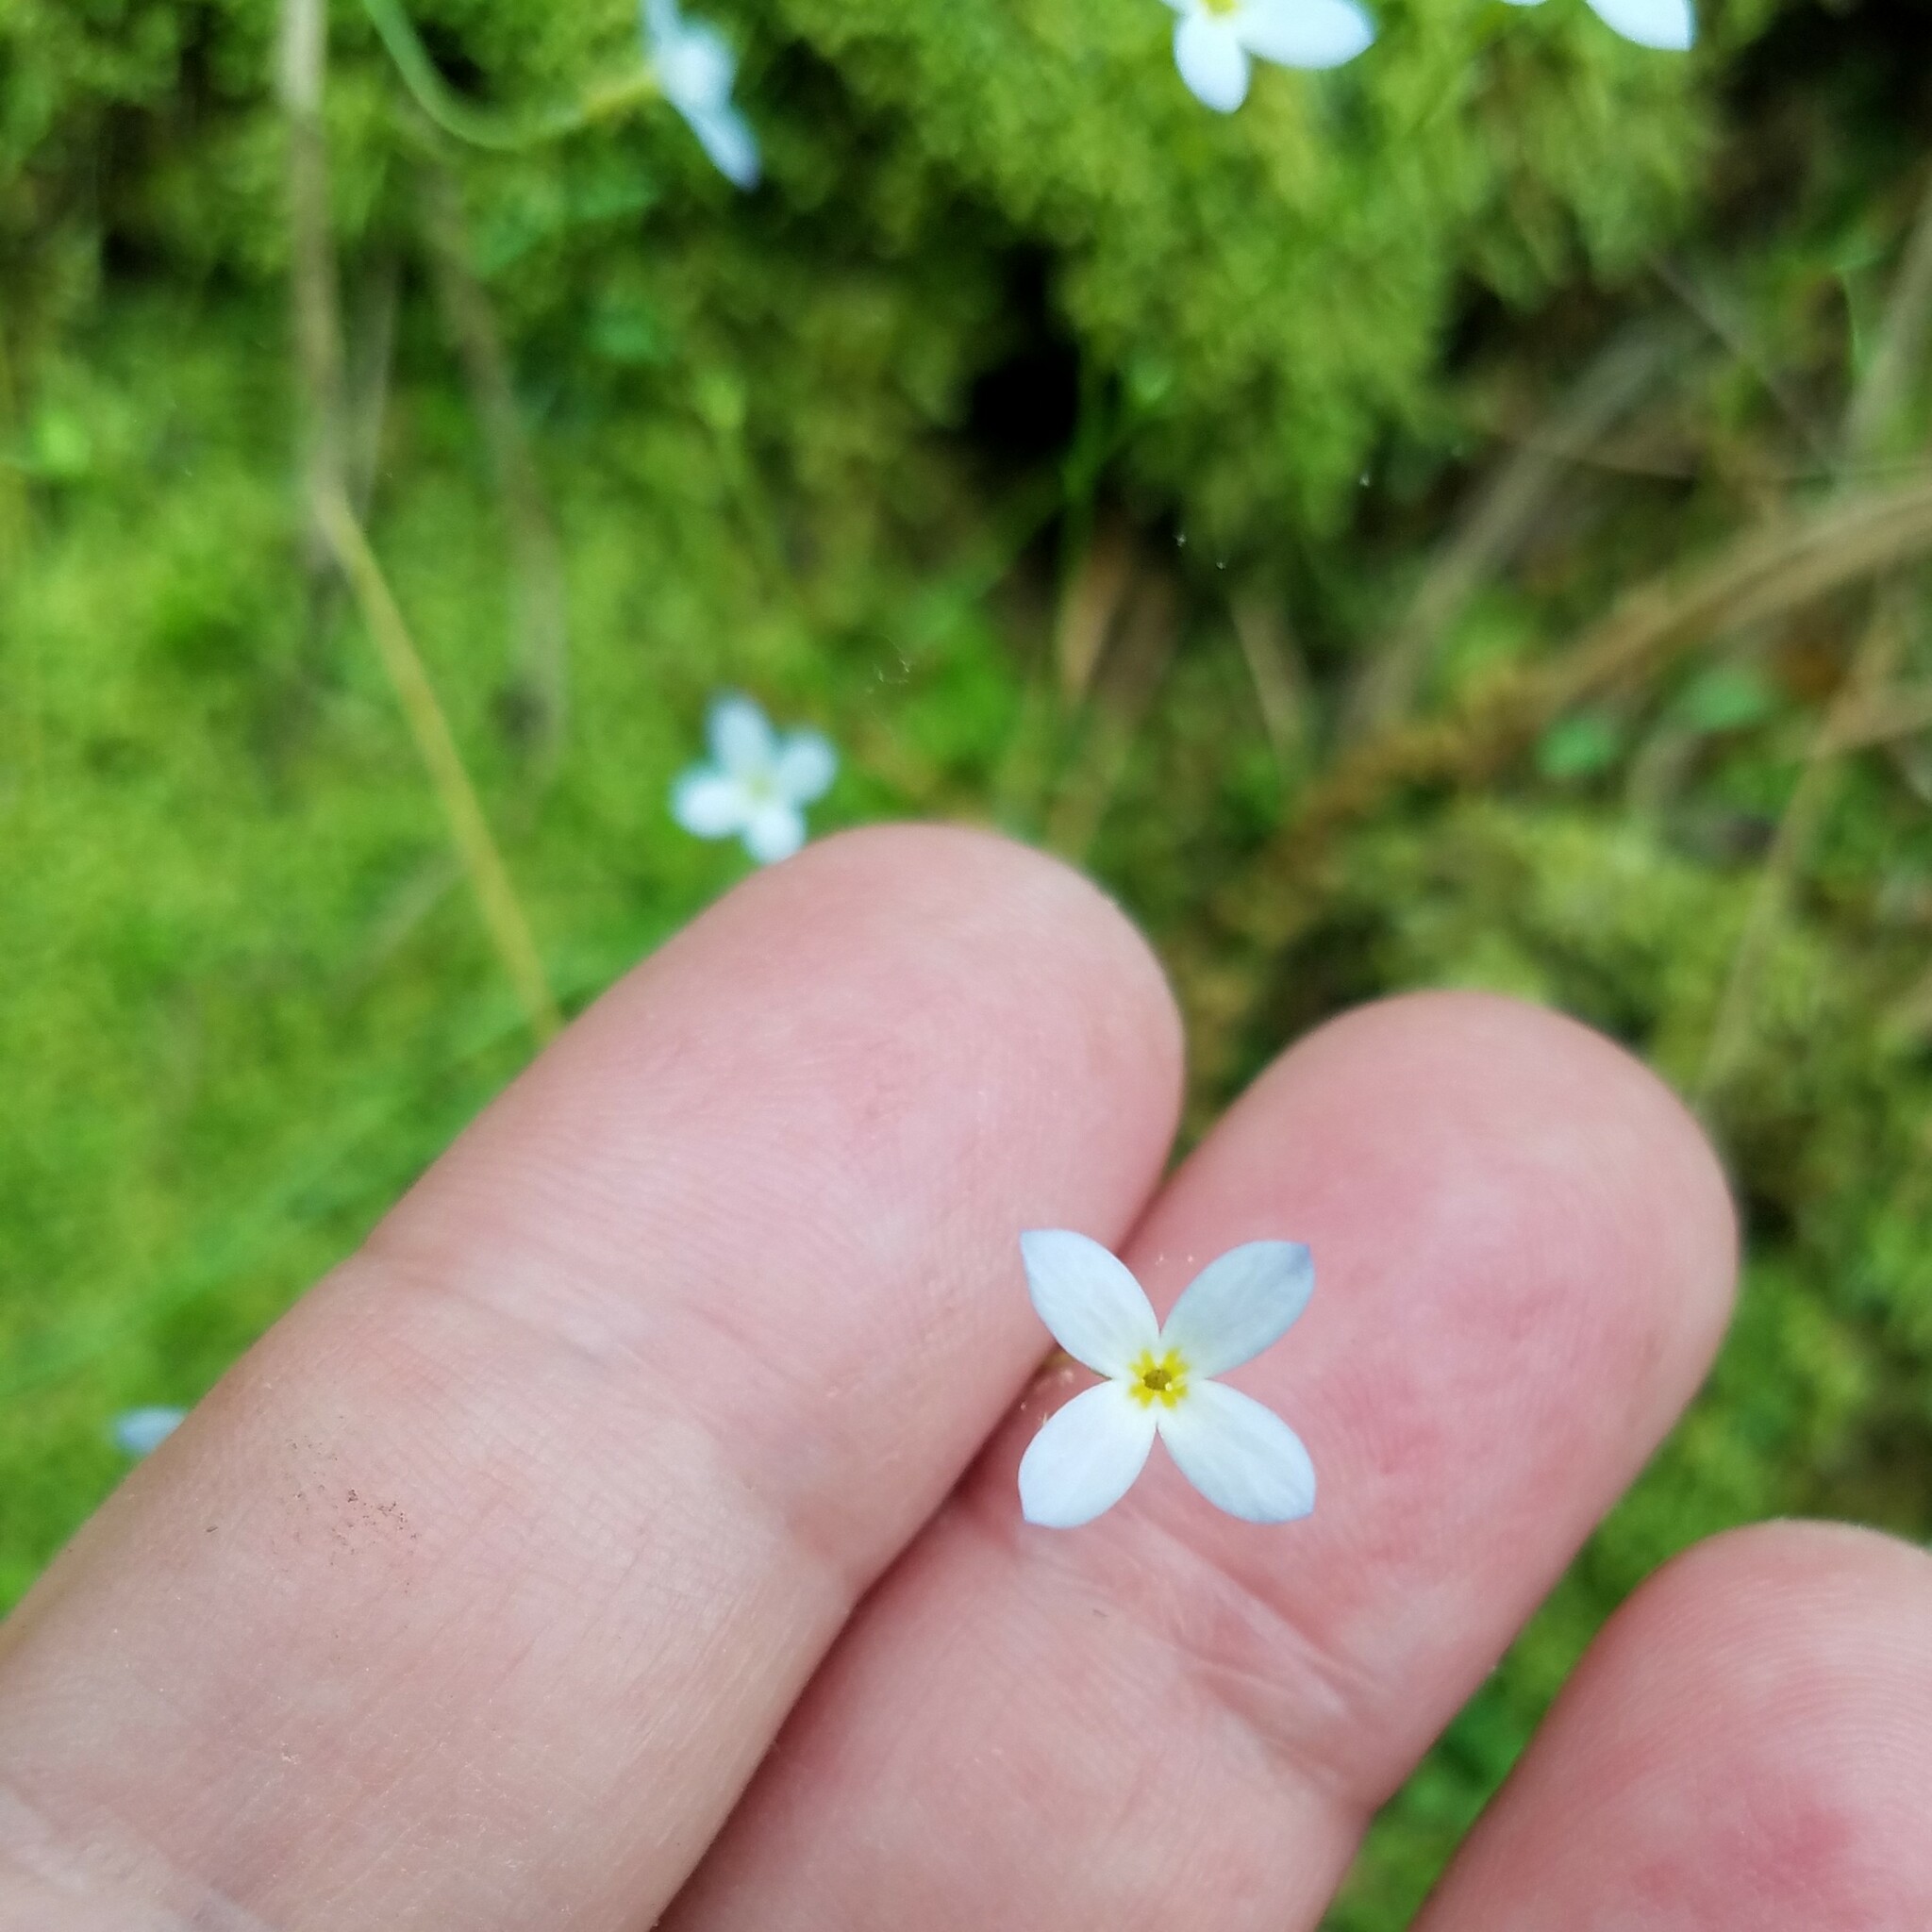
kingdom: Plantae
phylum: Tracheophyta
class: Magnoliopsida
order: Gentianales
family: Rubiaceae
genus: Houstonia
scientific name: Houstonia caerulea
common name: Bluets
